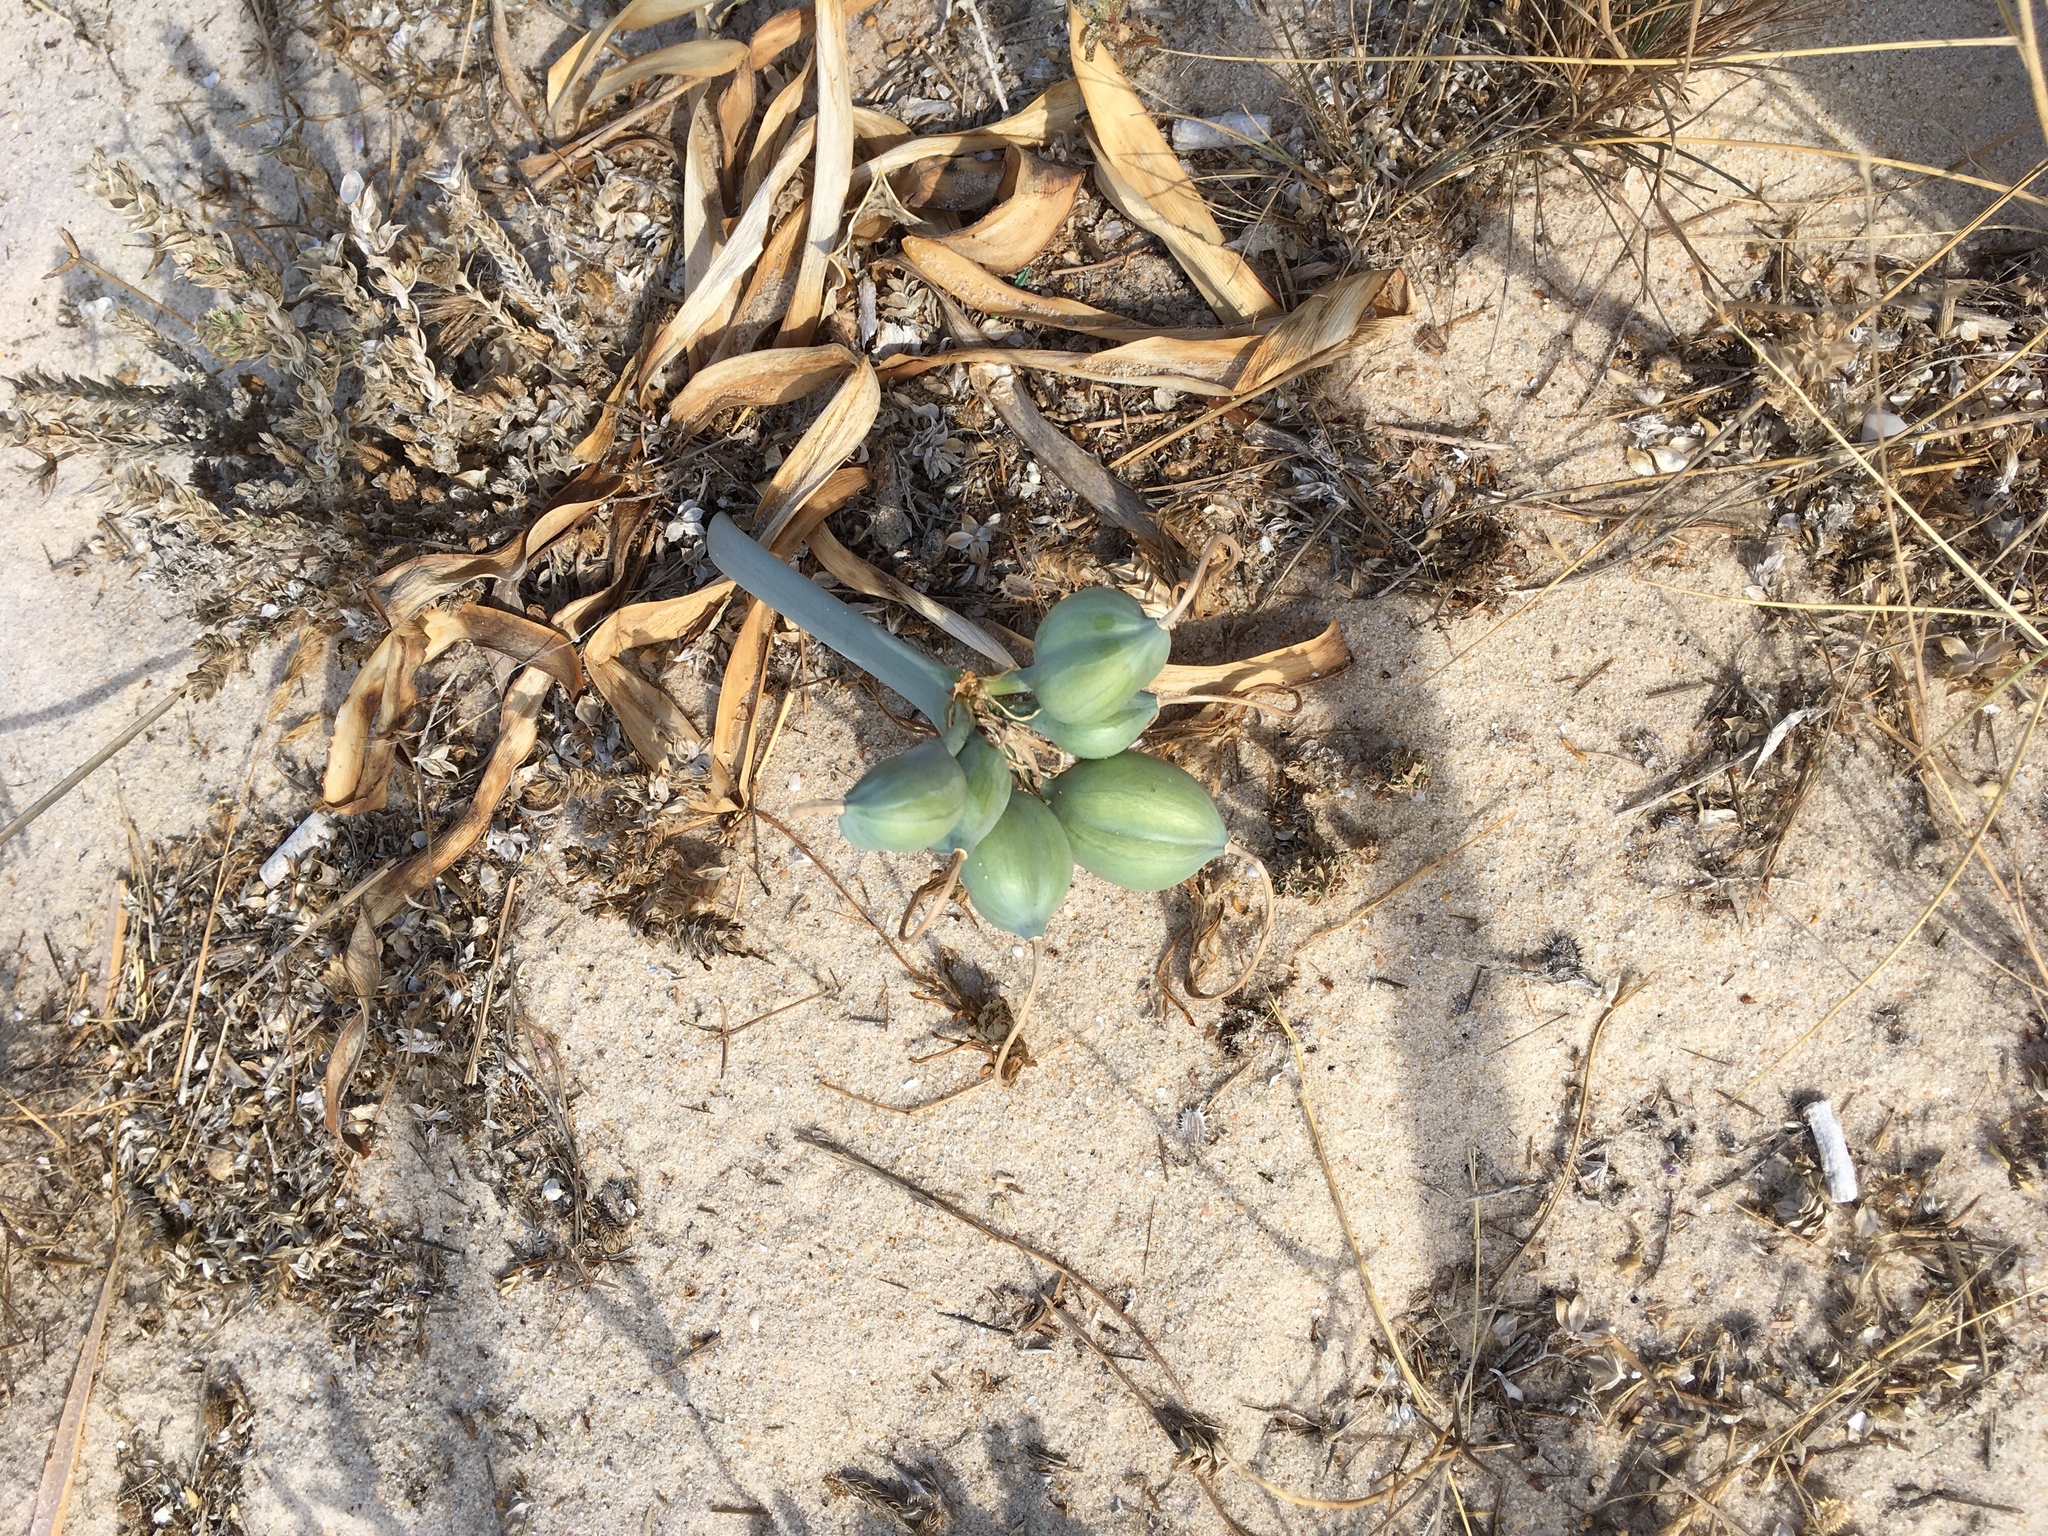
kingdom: Plantae
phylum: Tracheophyta
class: Liliopsida
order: Asparagales
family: Amaryllidaceae
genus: Pancratium
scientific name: Pancratium maritimum
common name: Sea-daffodil
